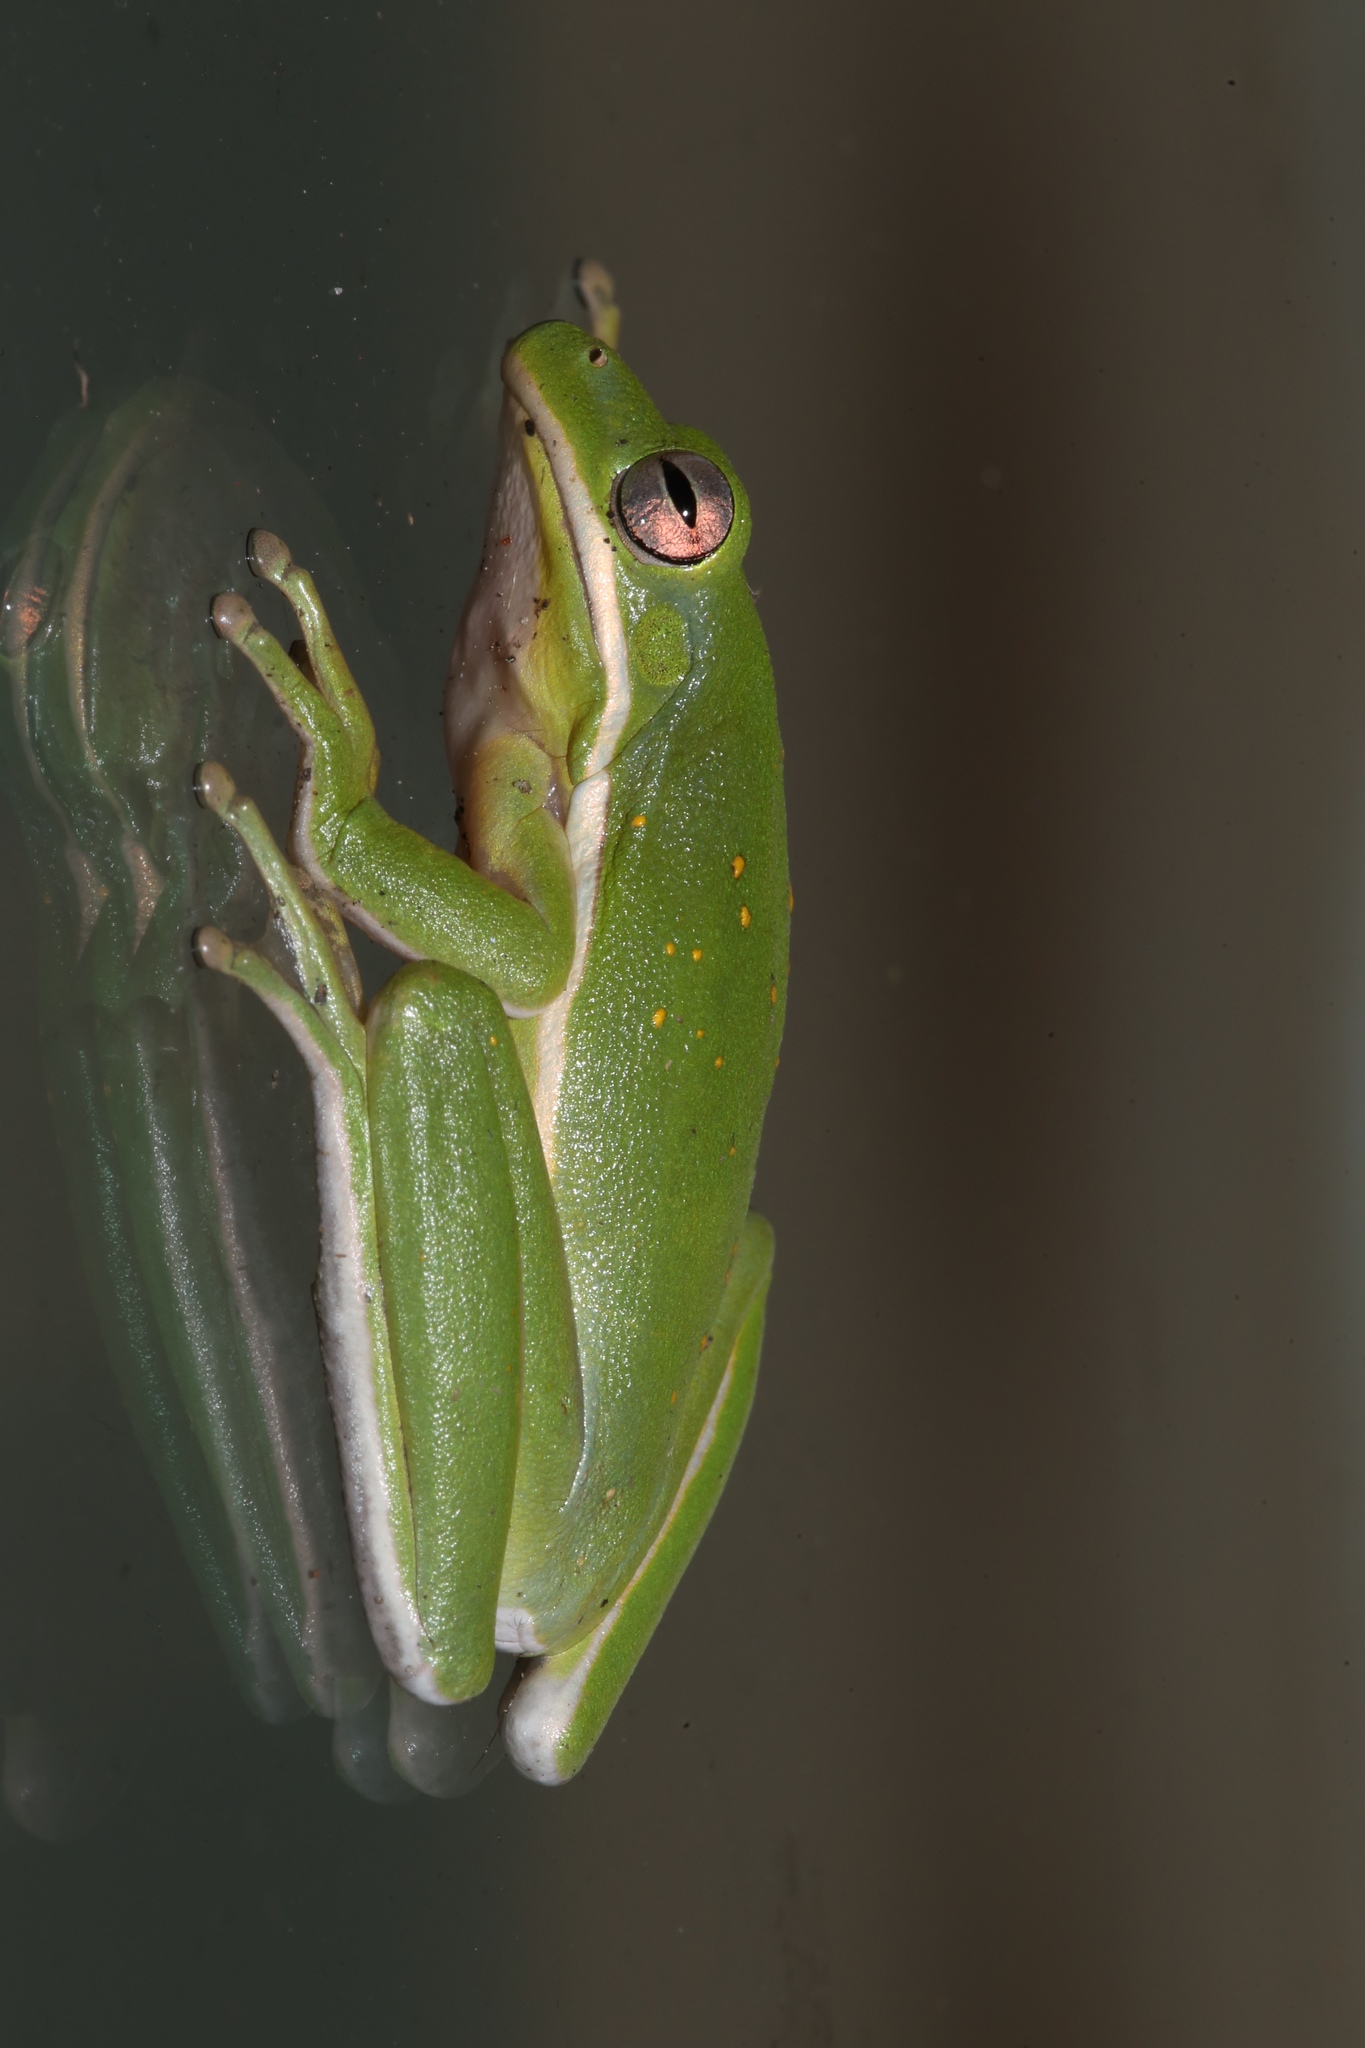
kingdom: Animalia
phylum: Chordata
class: Amphibia
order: Anura
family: Hylidae
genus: Dryophytes
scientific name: Dryophytes cinereus
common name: Green treefrog
